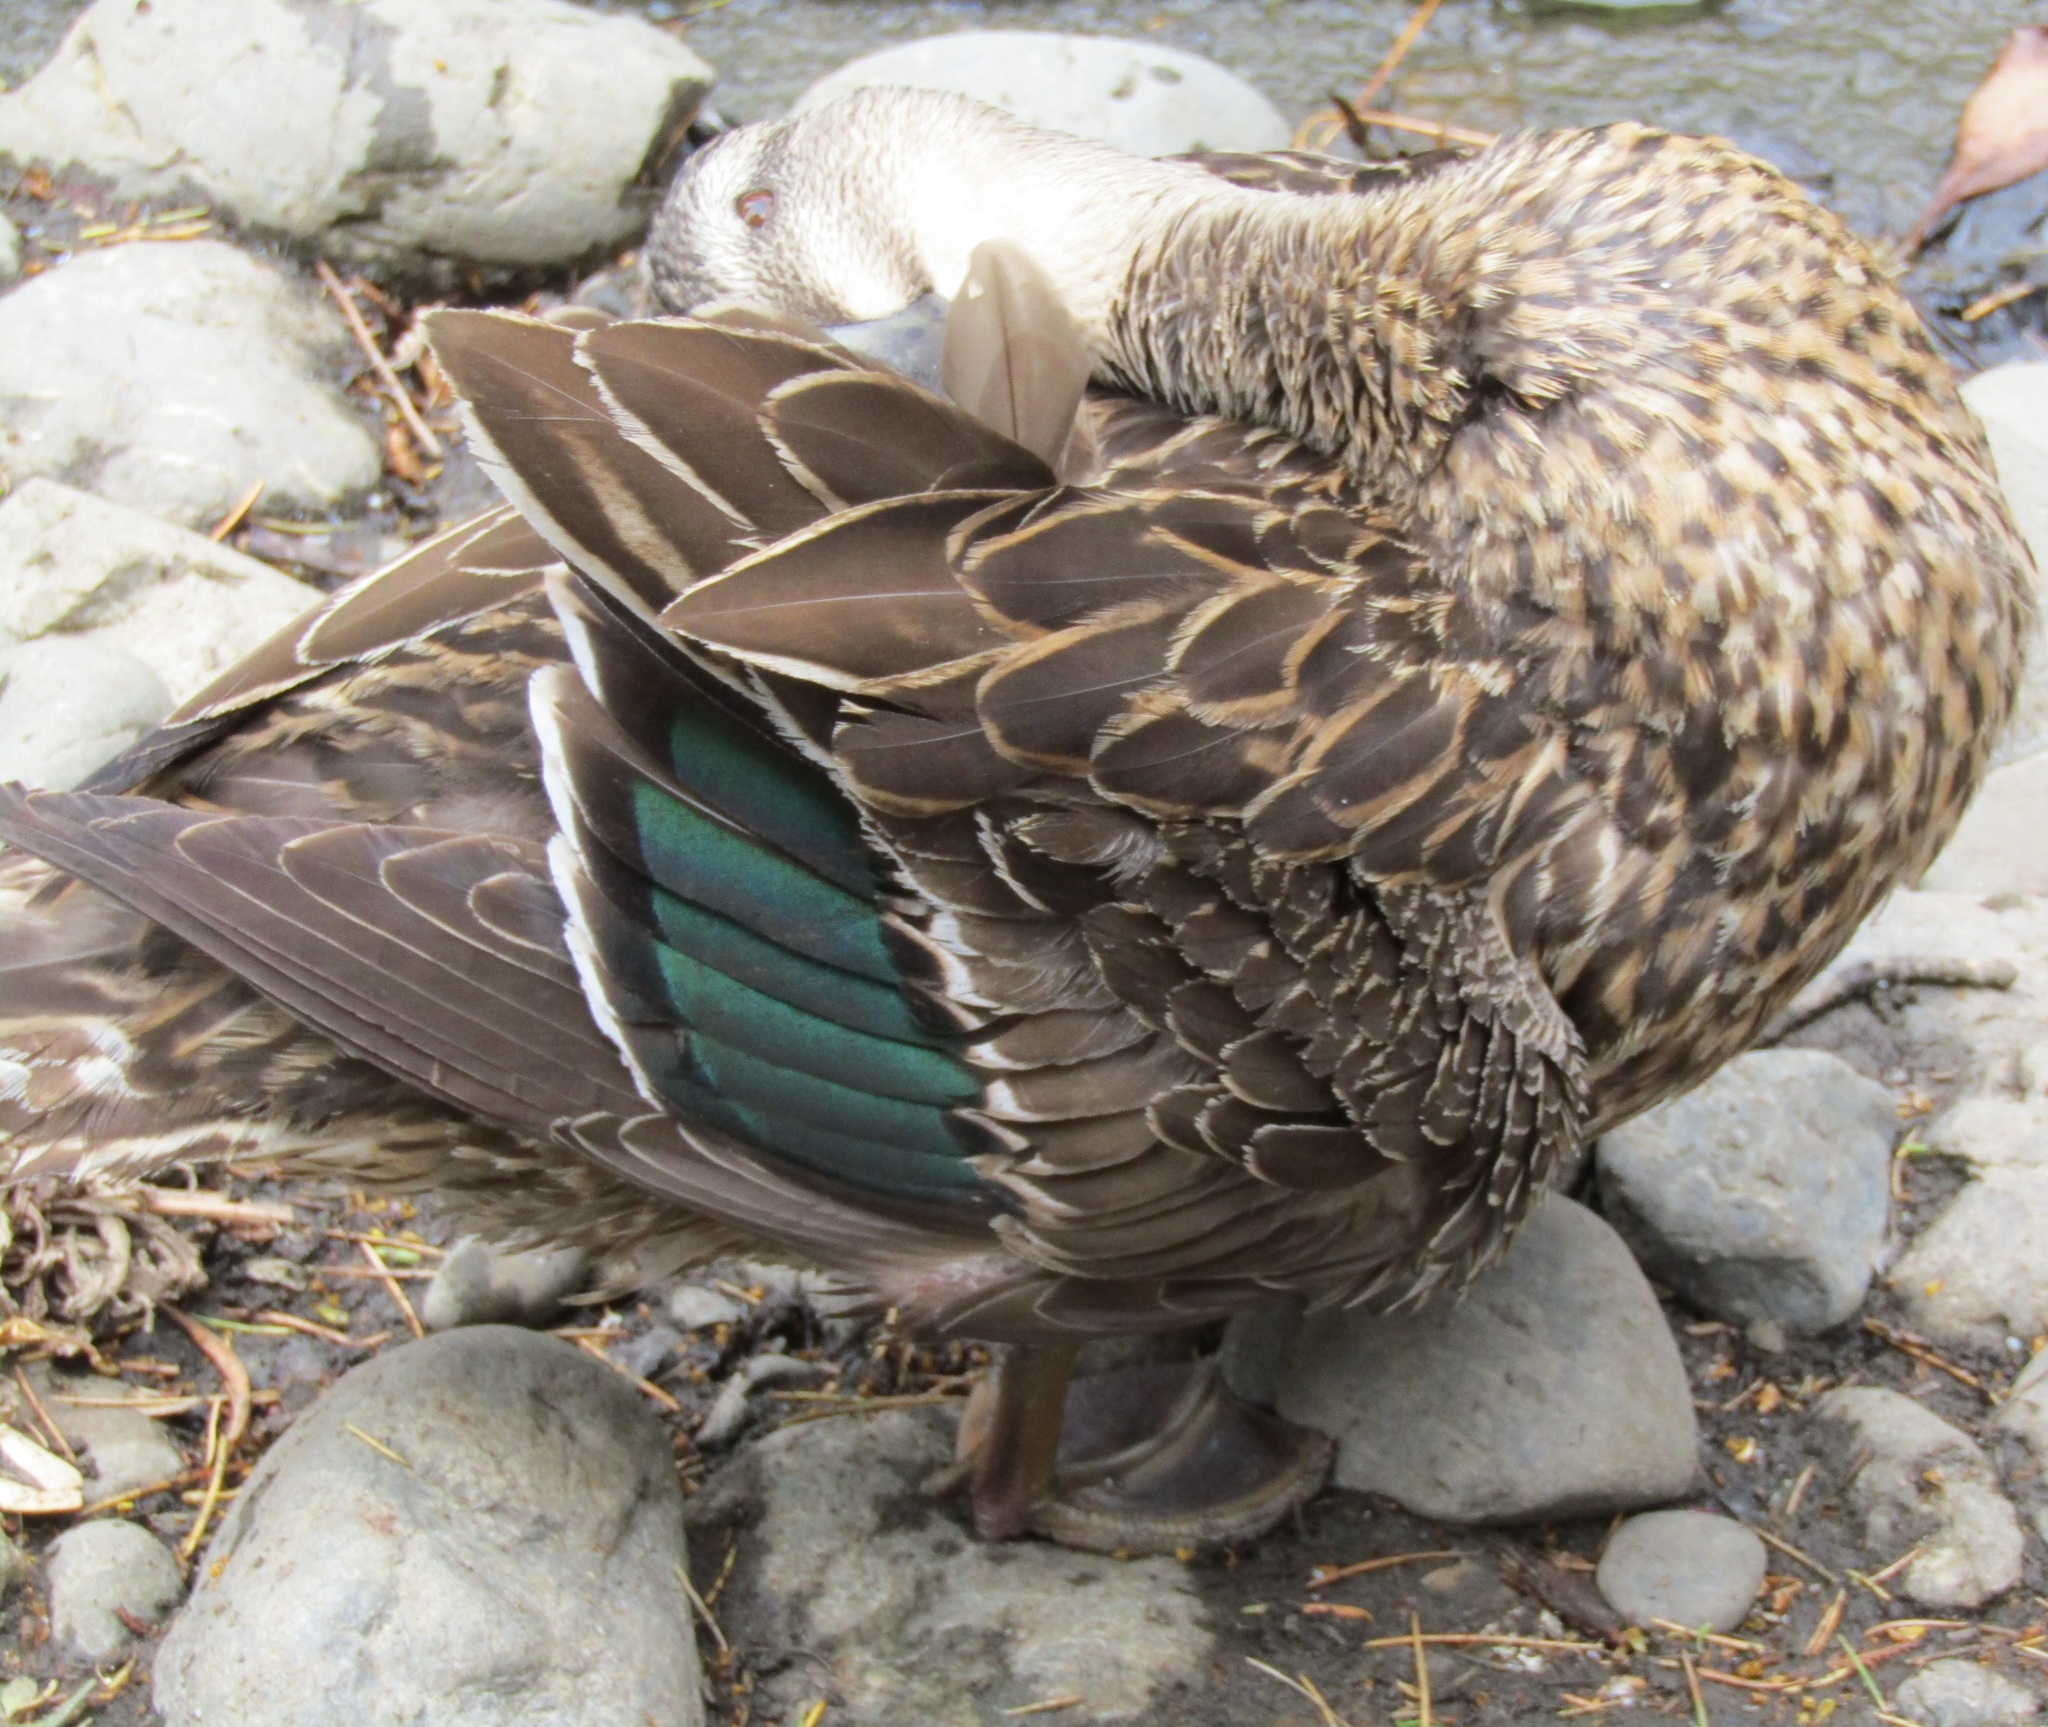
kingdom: Animalia
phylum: Chordata
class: Aves
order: Anseriformes
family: Anatidae
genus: Anas
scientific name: Anas
